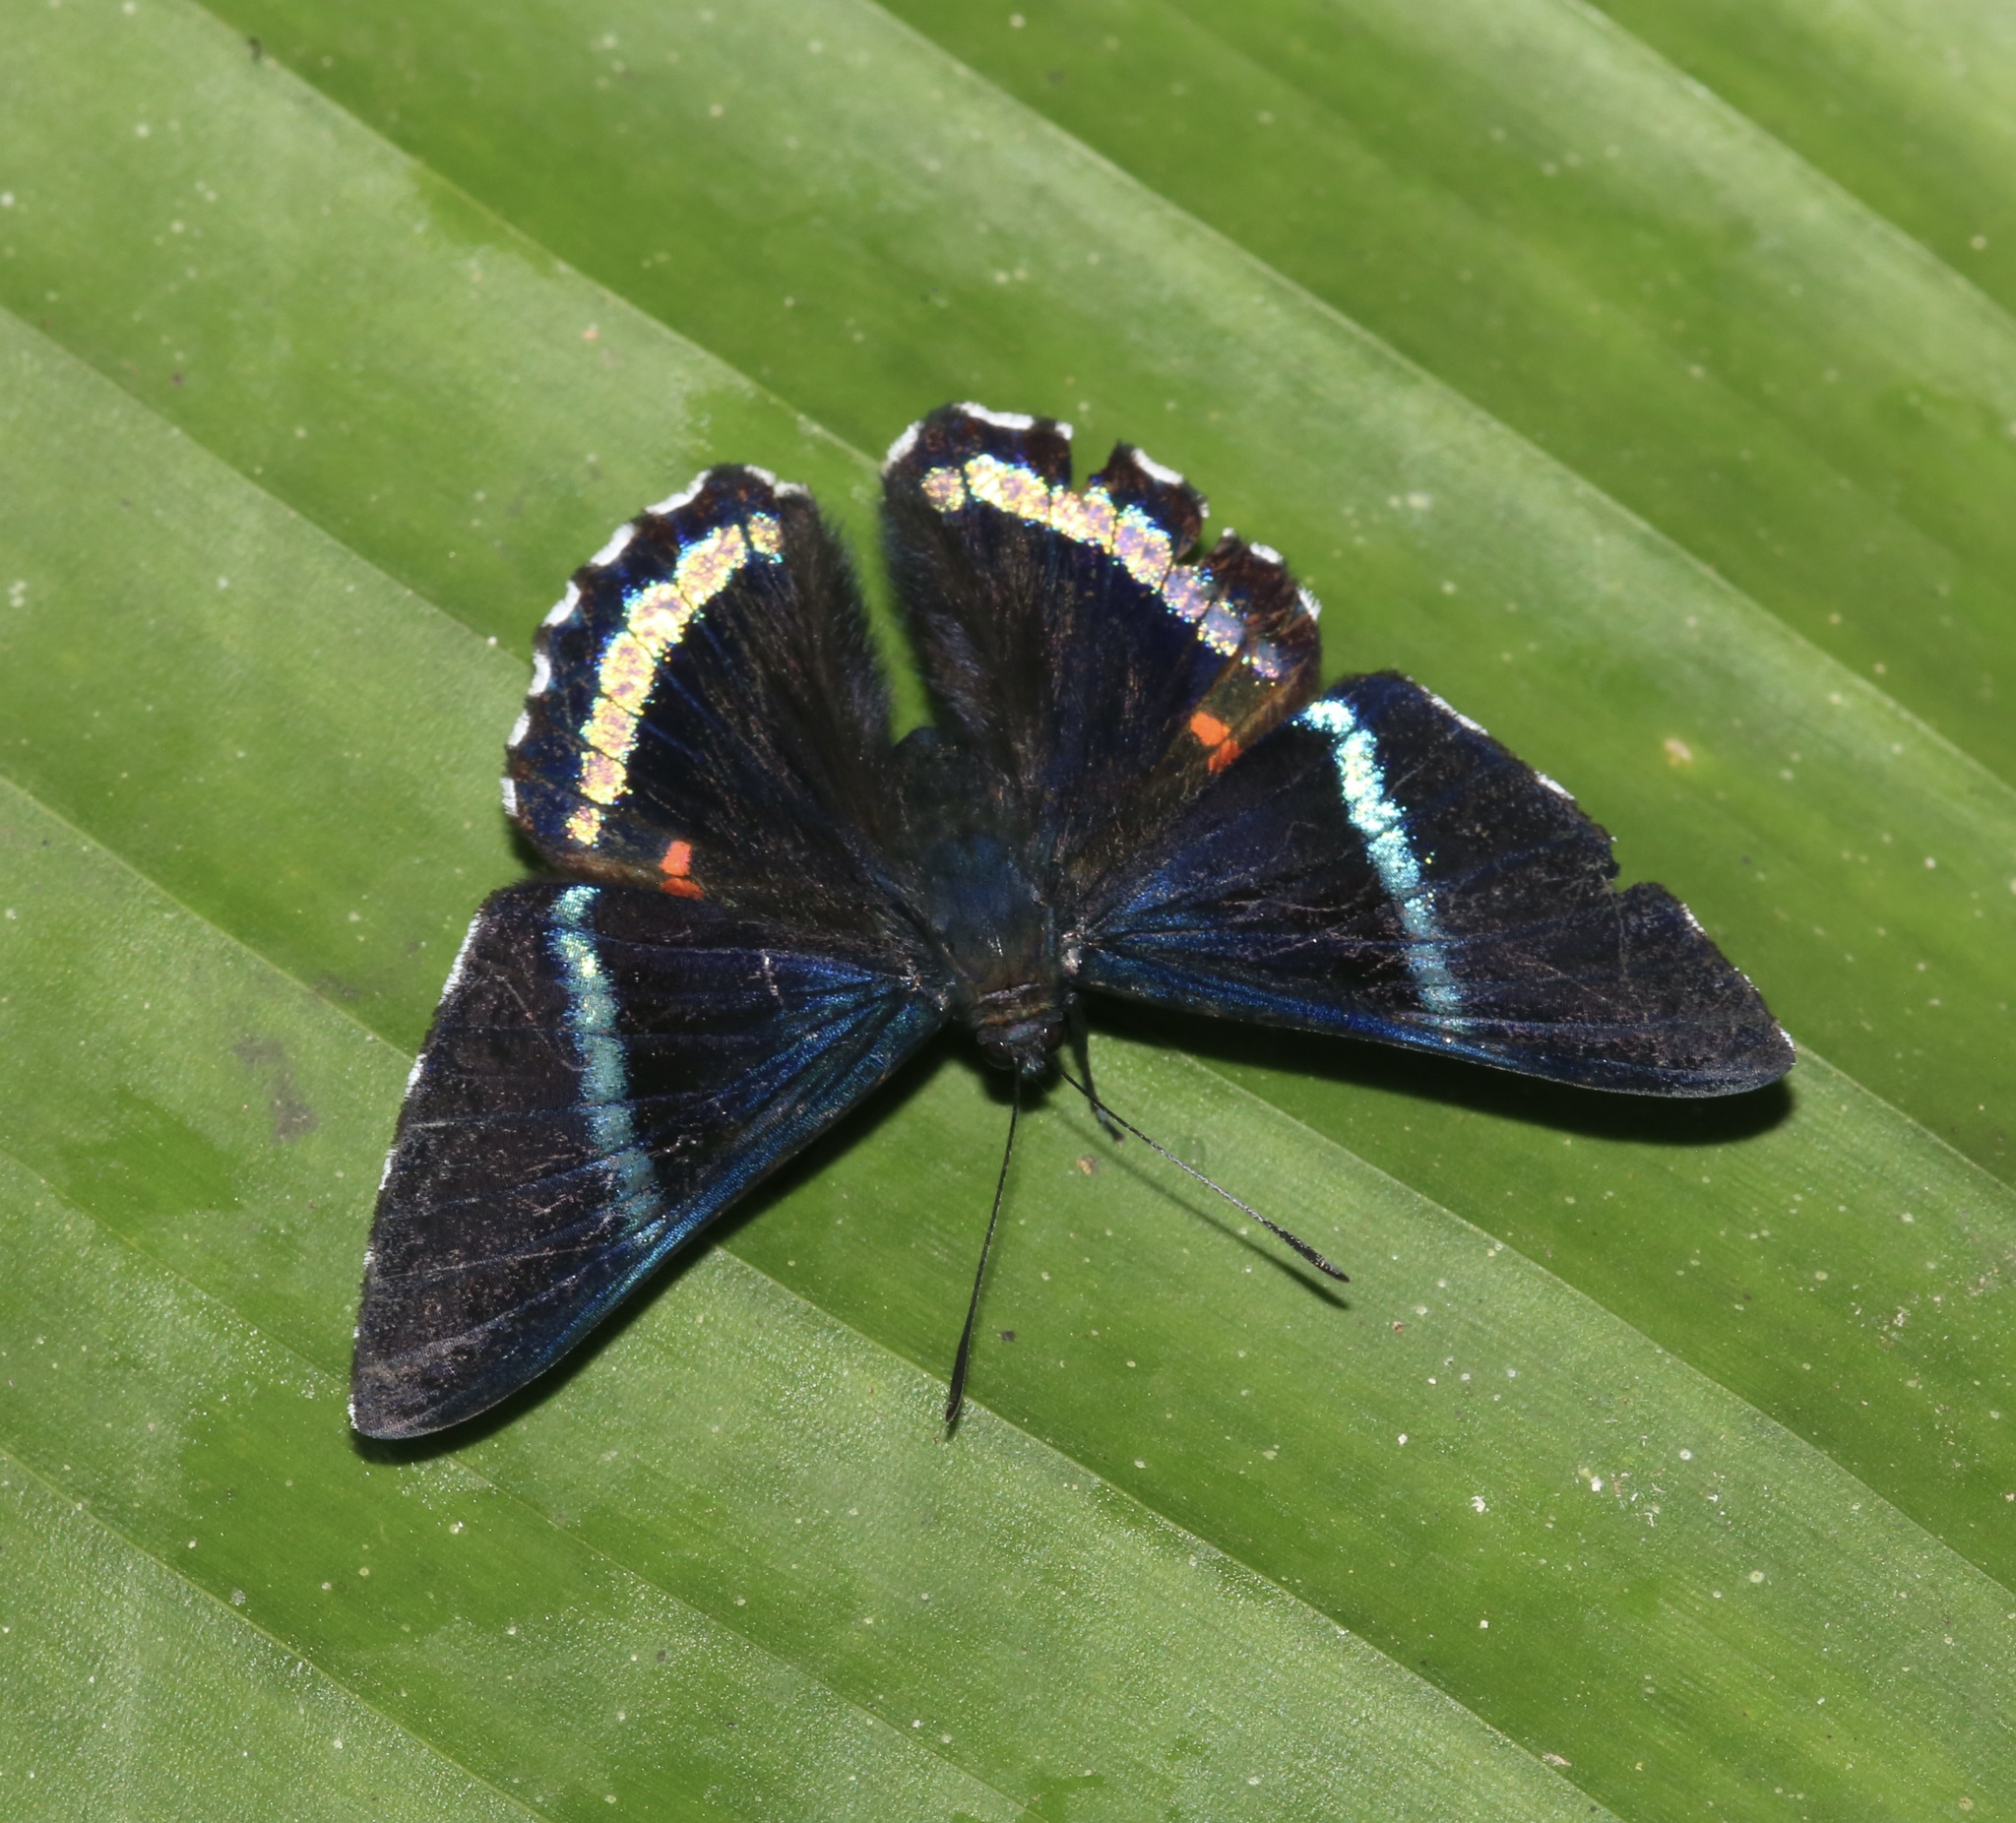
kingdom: Animalia
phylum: Arthropoda
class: Insecta
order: Lepidoptera
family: Lycaenidae
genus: Necyria
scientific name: Necyria bellona
